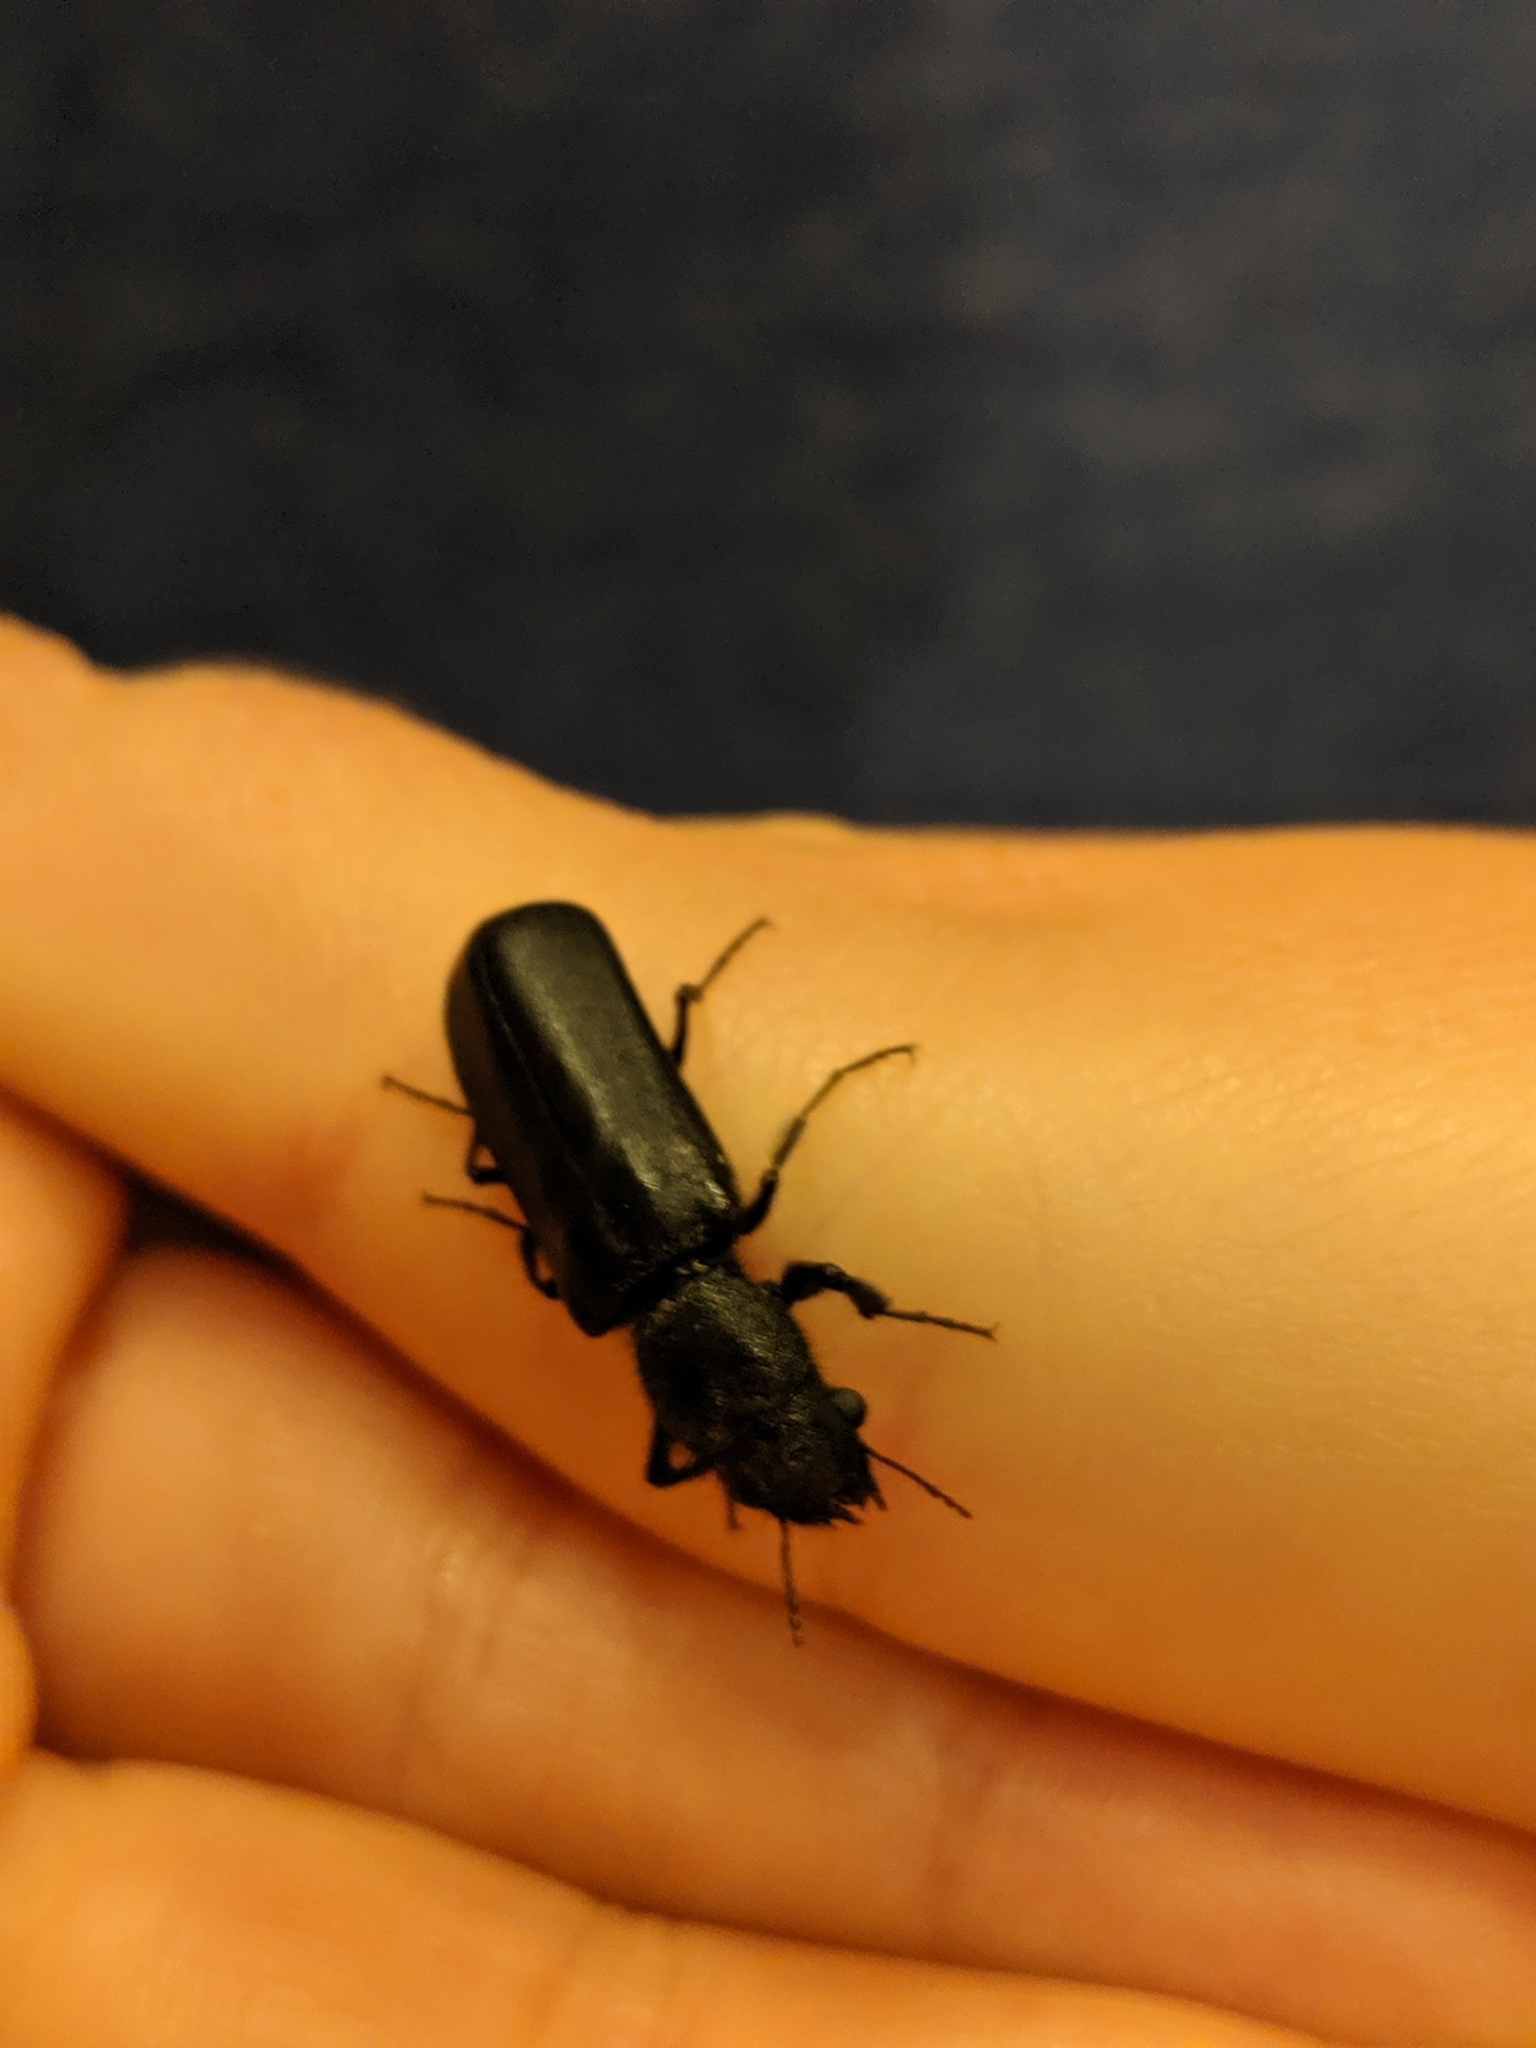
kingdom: Animalia
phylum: Arthropoda
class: Insecta
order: Coleoptera
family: Bostrichidae
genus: Polycaon
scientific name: Polycaon stoutii
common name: Powderpost beetle
